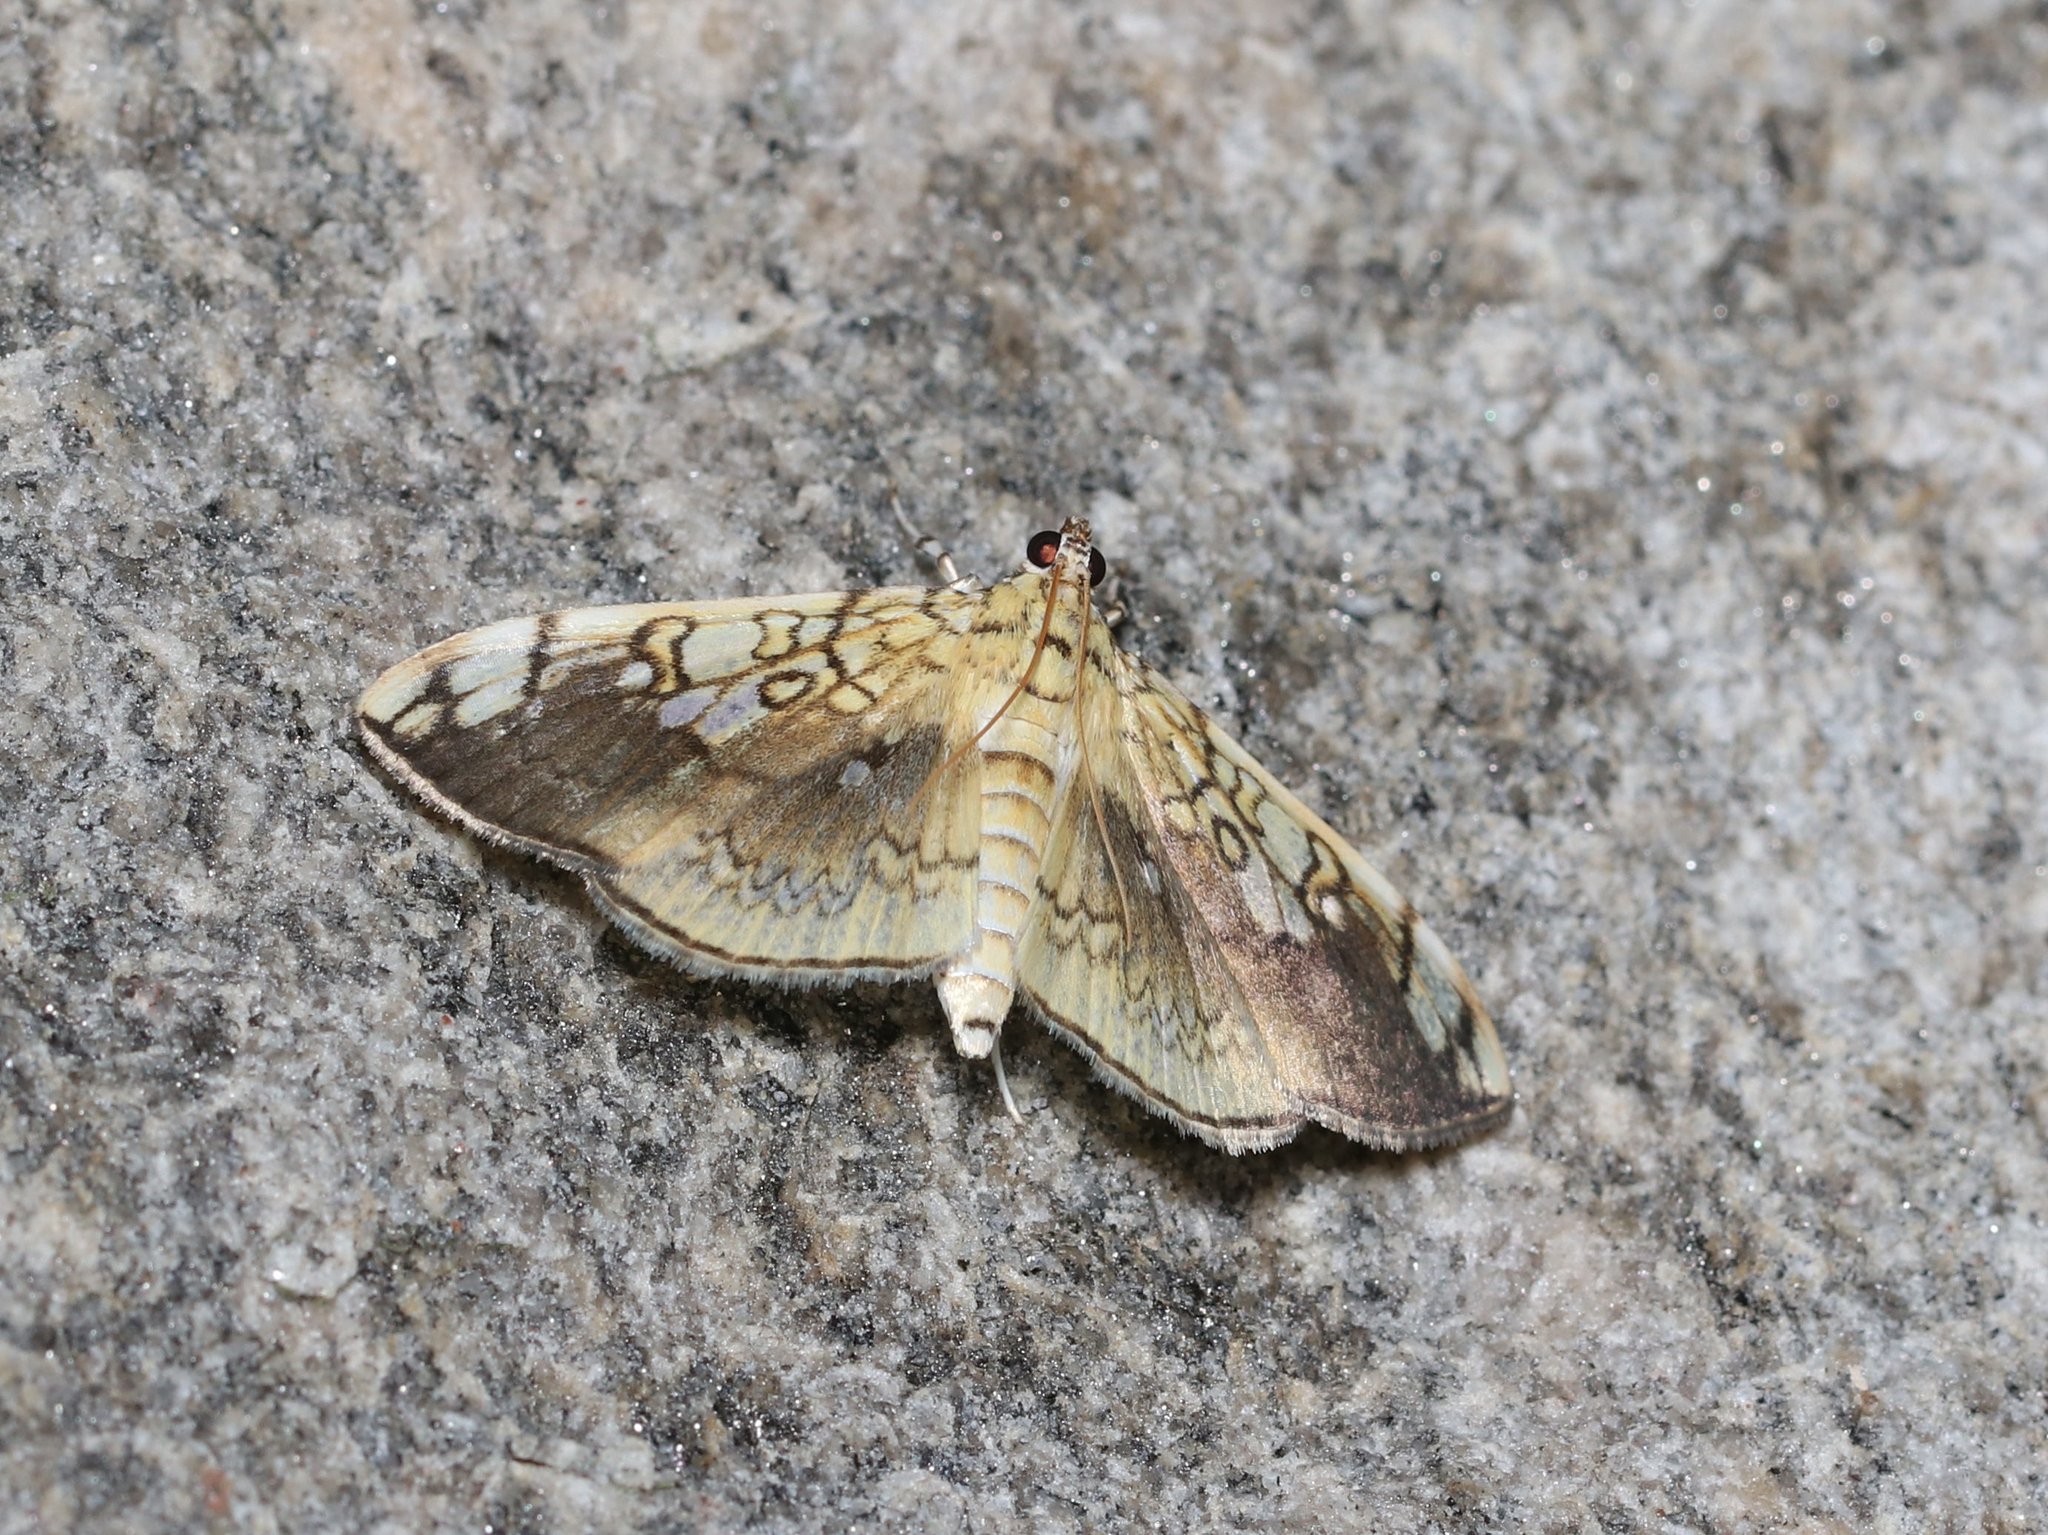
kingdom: Animalia
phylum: Arthropoda
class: Insecta
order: Lepidoptera
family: Crambidae
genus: Pantographa
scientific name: Pantographa limata
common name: Basswood leafroller moth
